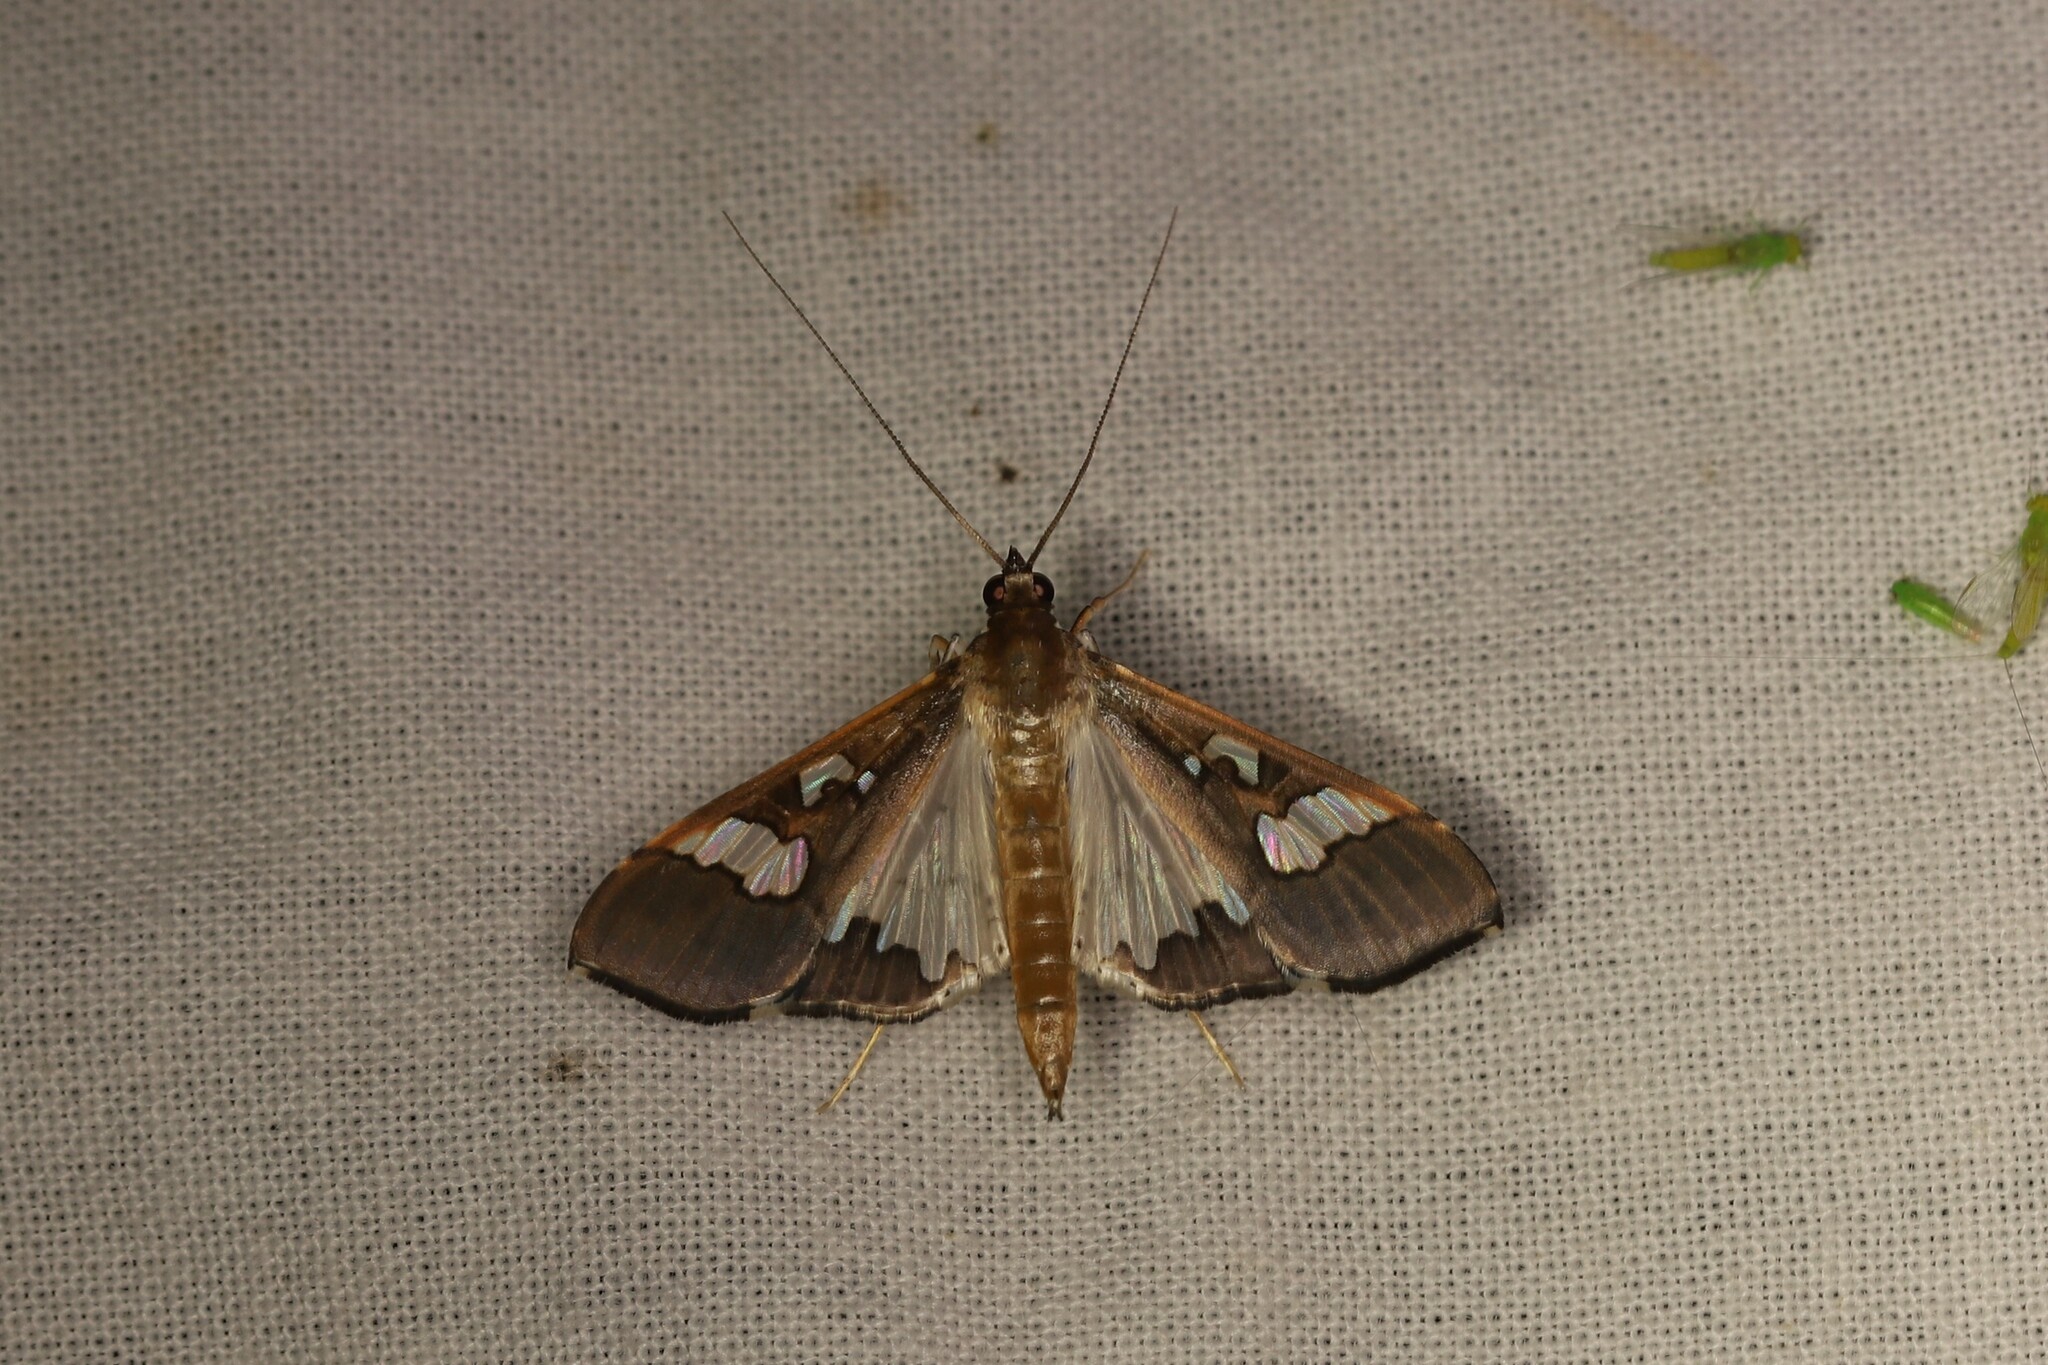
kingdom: Animalia
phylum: Arthropoda
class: Insecta
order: Lepidoptera
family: Crambidae
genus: Maruca
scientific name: Maruca vitrata
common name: Maruca pod borer
